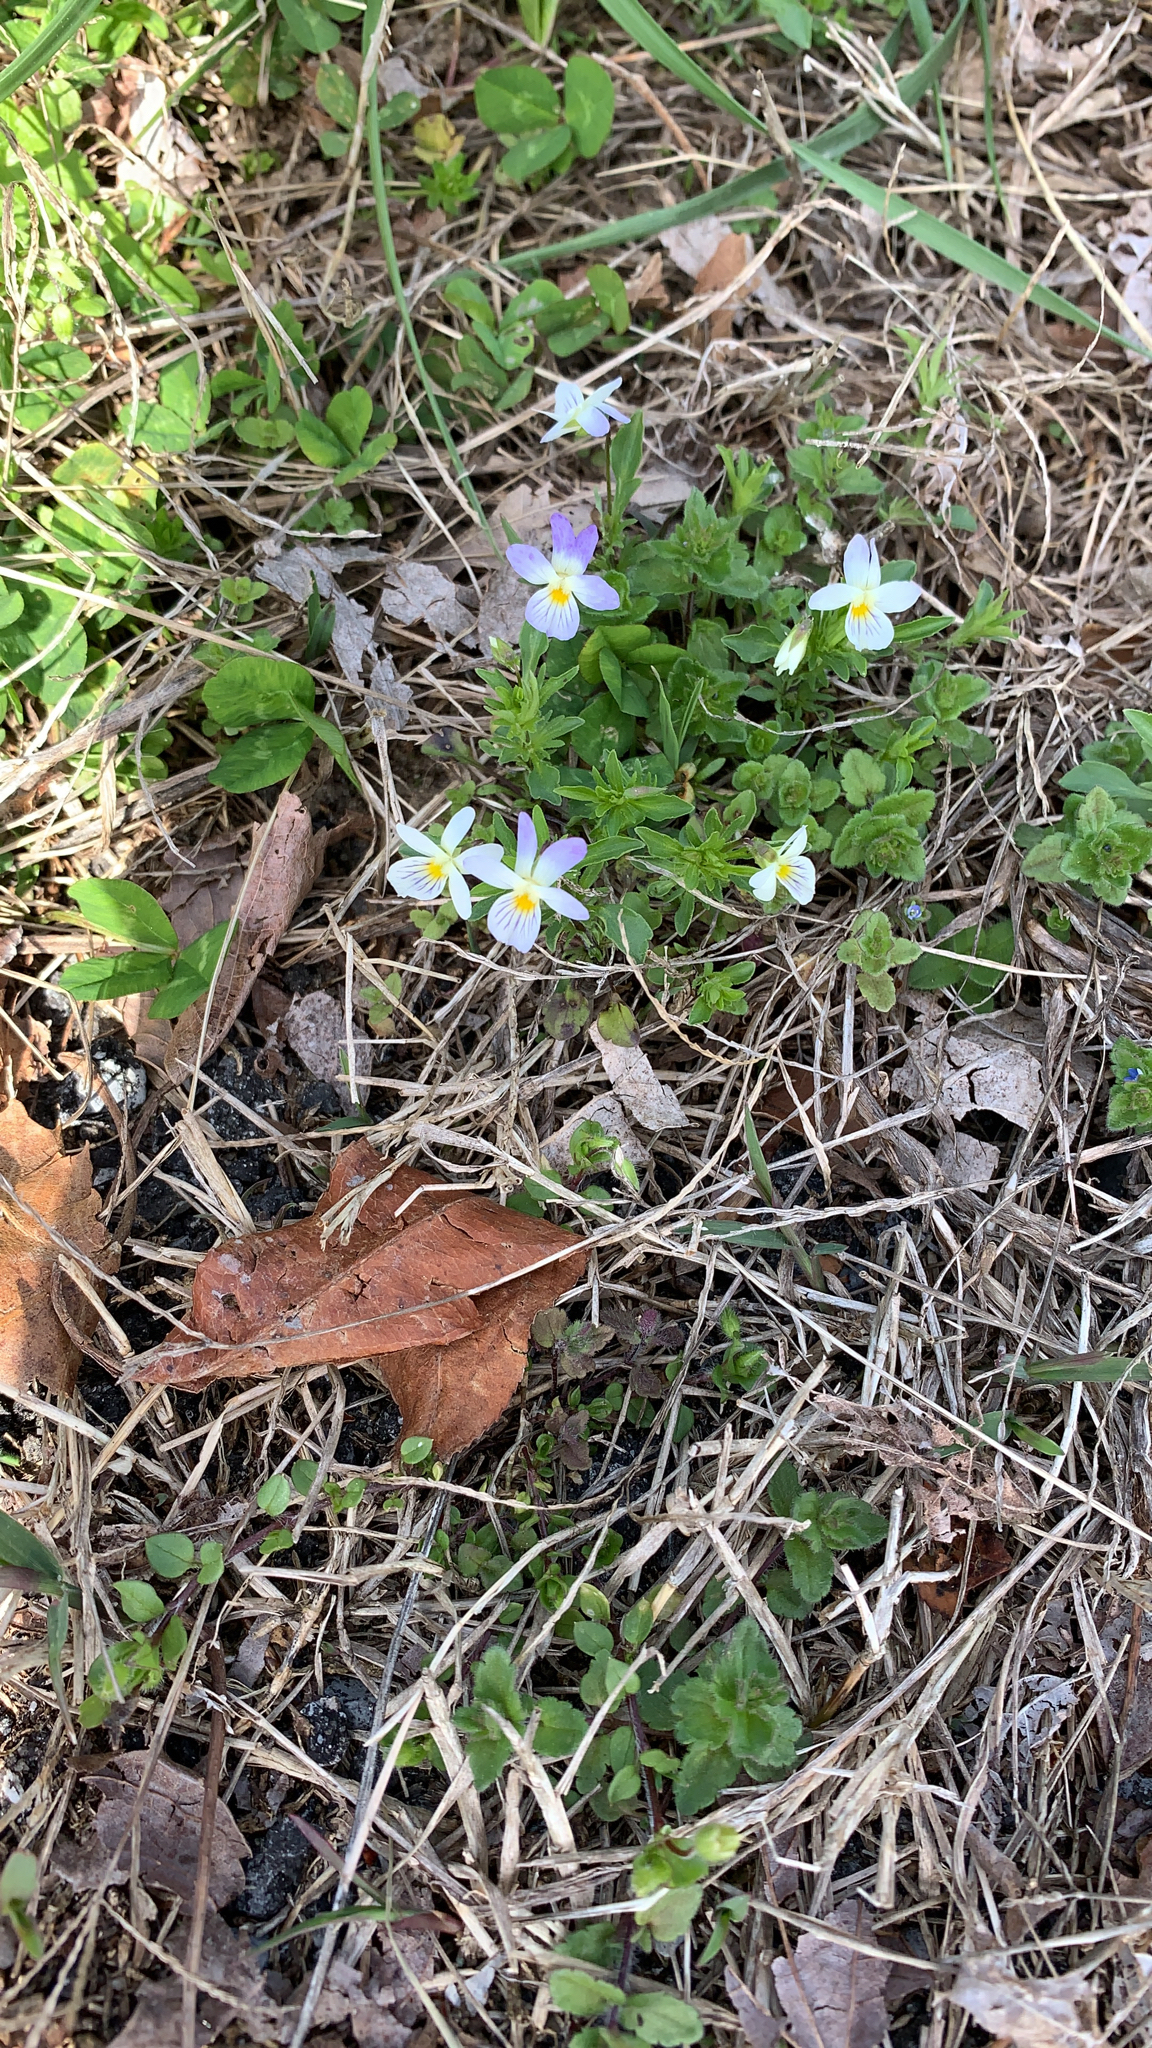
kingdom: Plantae
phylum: Tracheophyta
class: Magnoliopsida
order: Malpighiales
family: Violaceae
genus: Viola
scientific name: Viola rafinesquei
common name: American field pansy
